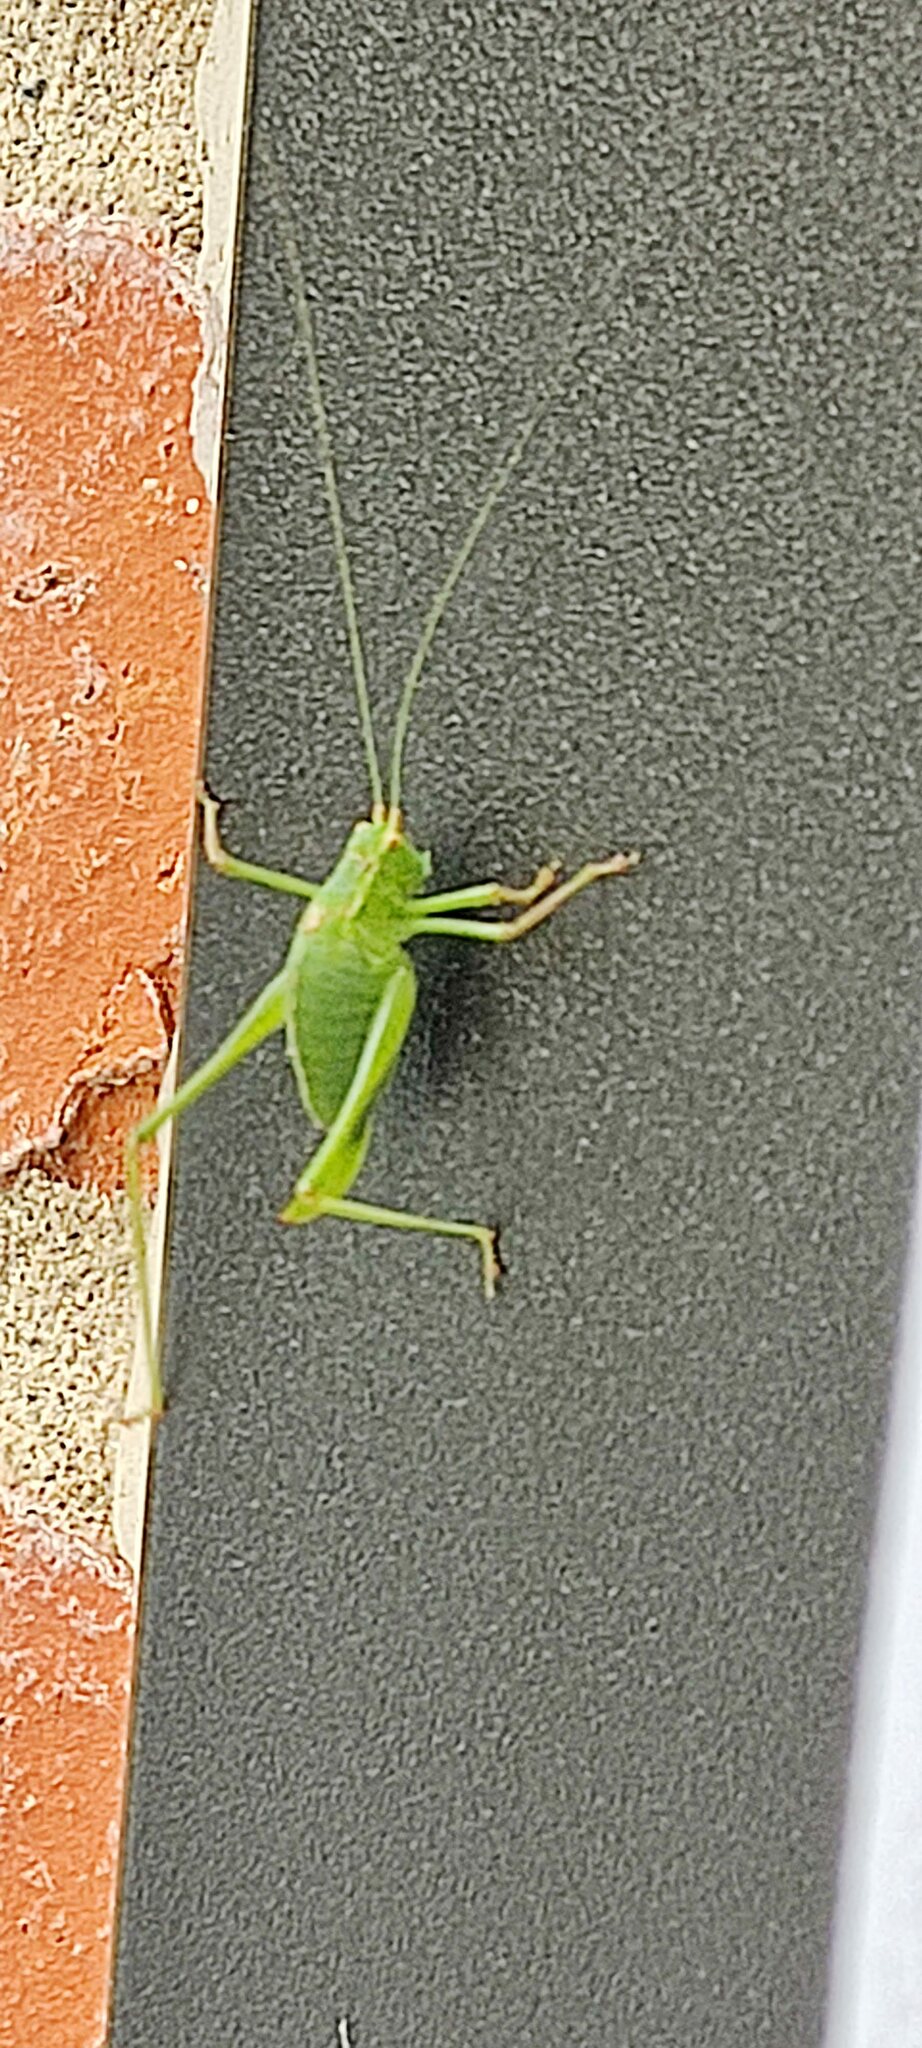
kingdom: Animalia
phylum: Arthropoda
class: Insecta
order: Orthoptera
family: Tettigoniidae
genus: Leptophyes
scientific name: Leptophyes punctatissima
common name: Speckled bush-cricket
